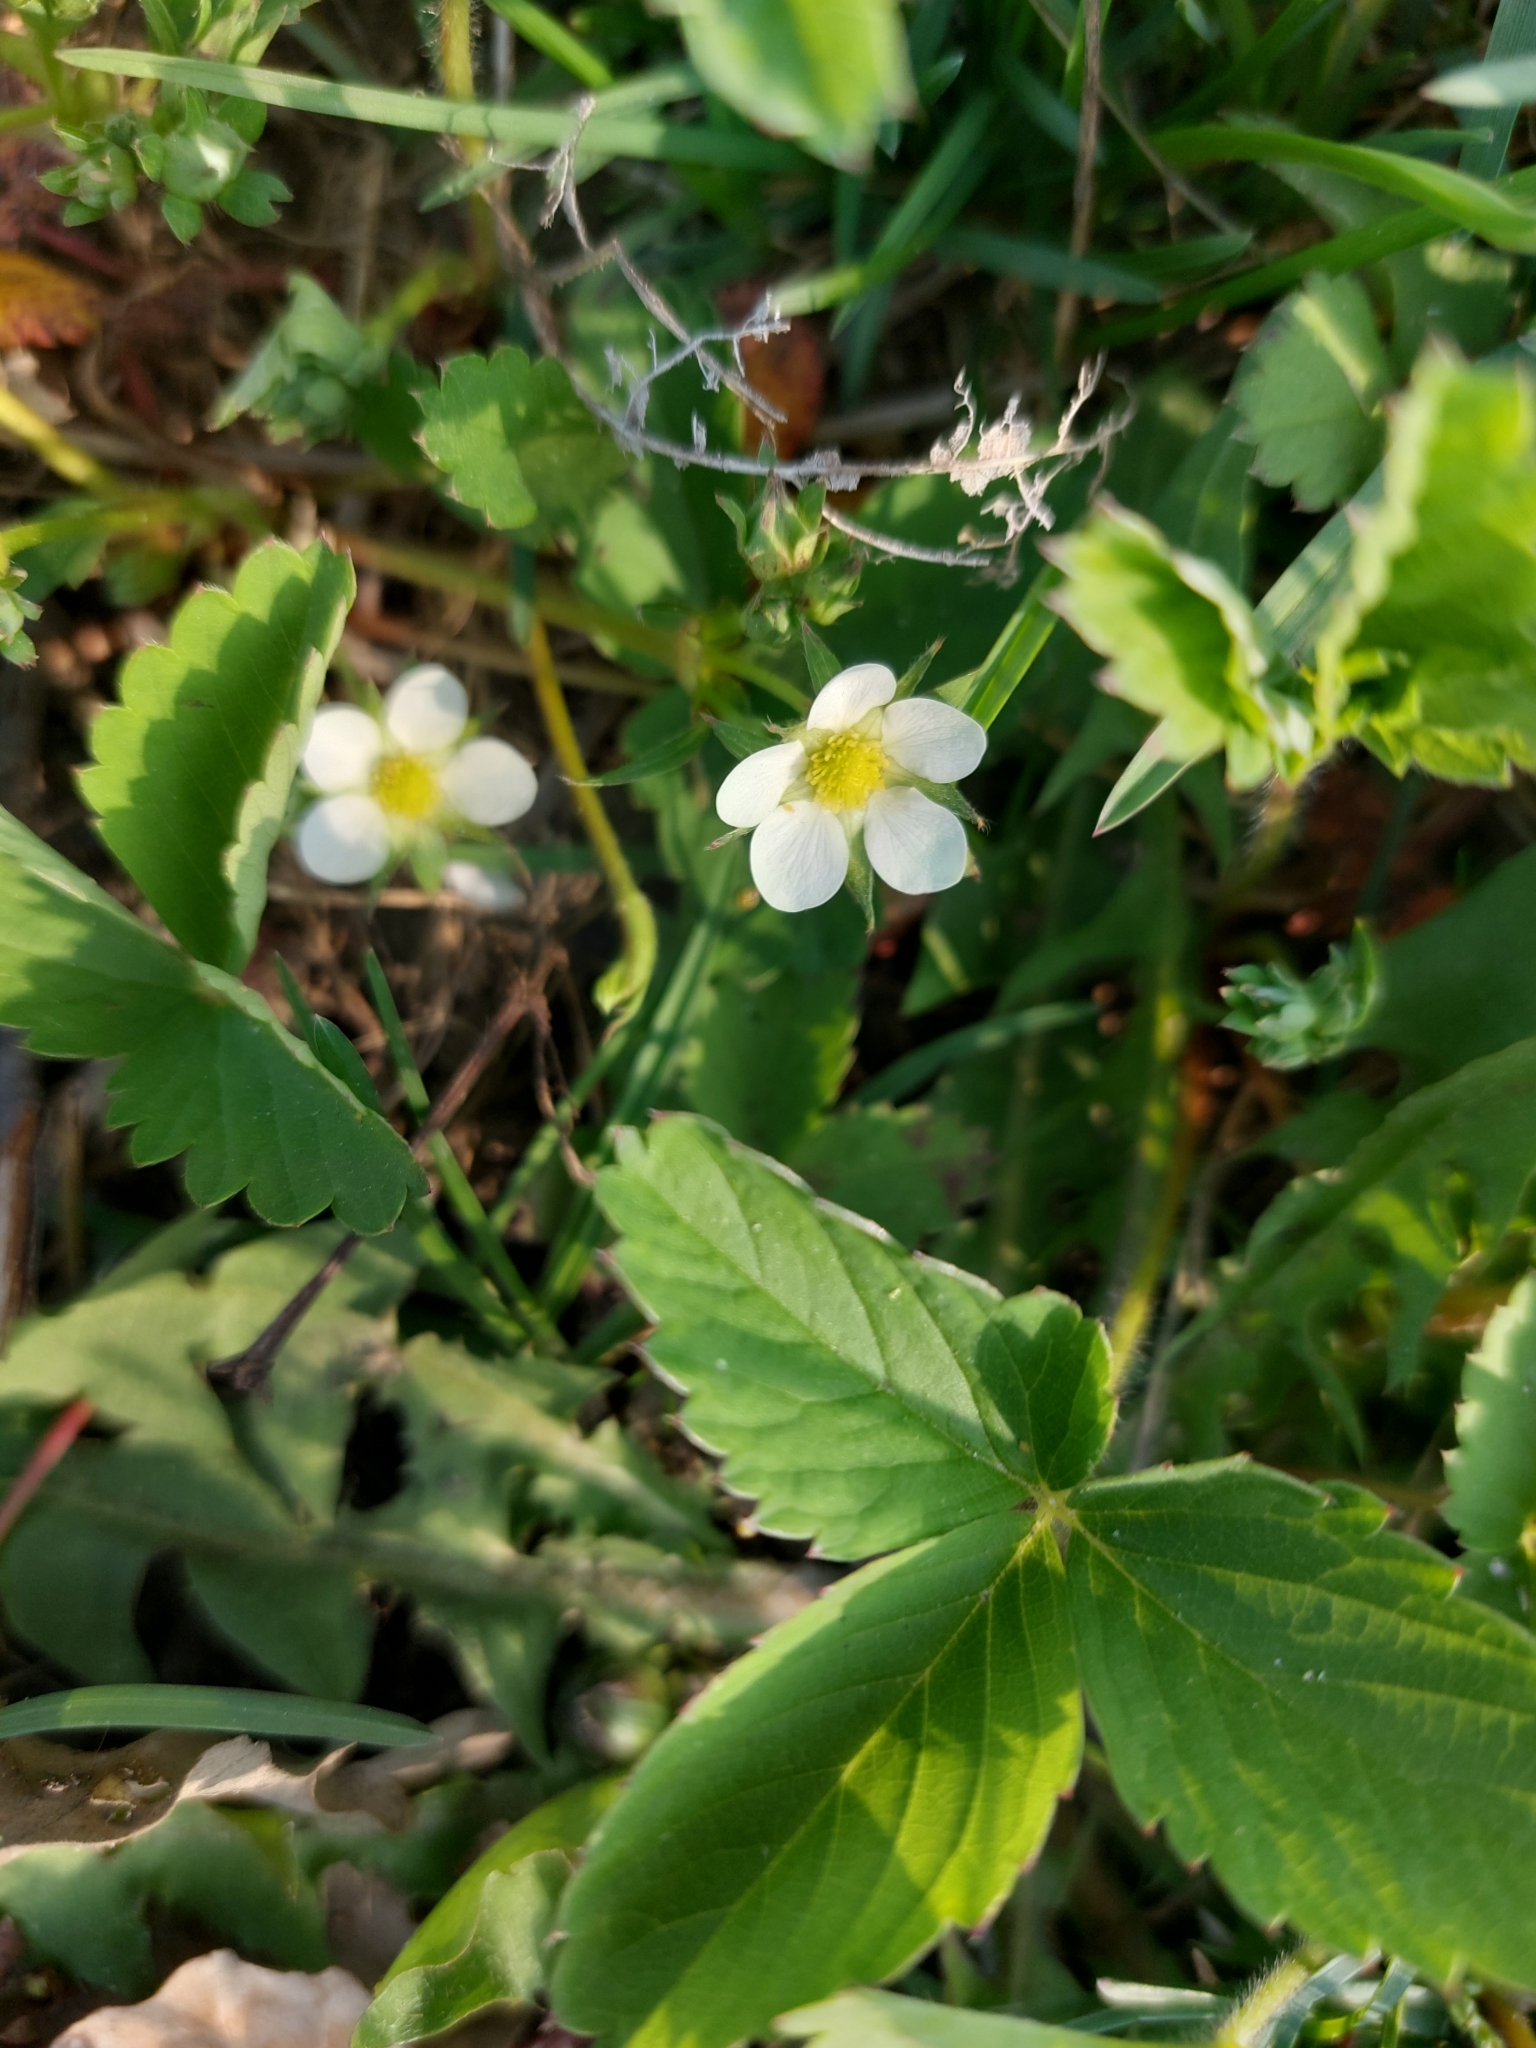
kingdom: Plantae
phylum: Tracheophyta
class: Magnoliopsida
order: Rosales
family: Rosaceae
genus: Fragaria
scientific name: Fragaria virginiana
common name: Thickleaved wild strawberry
